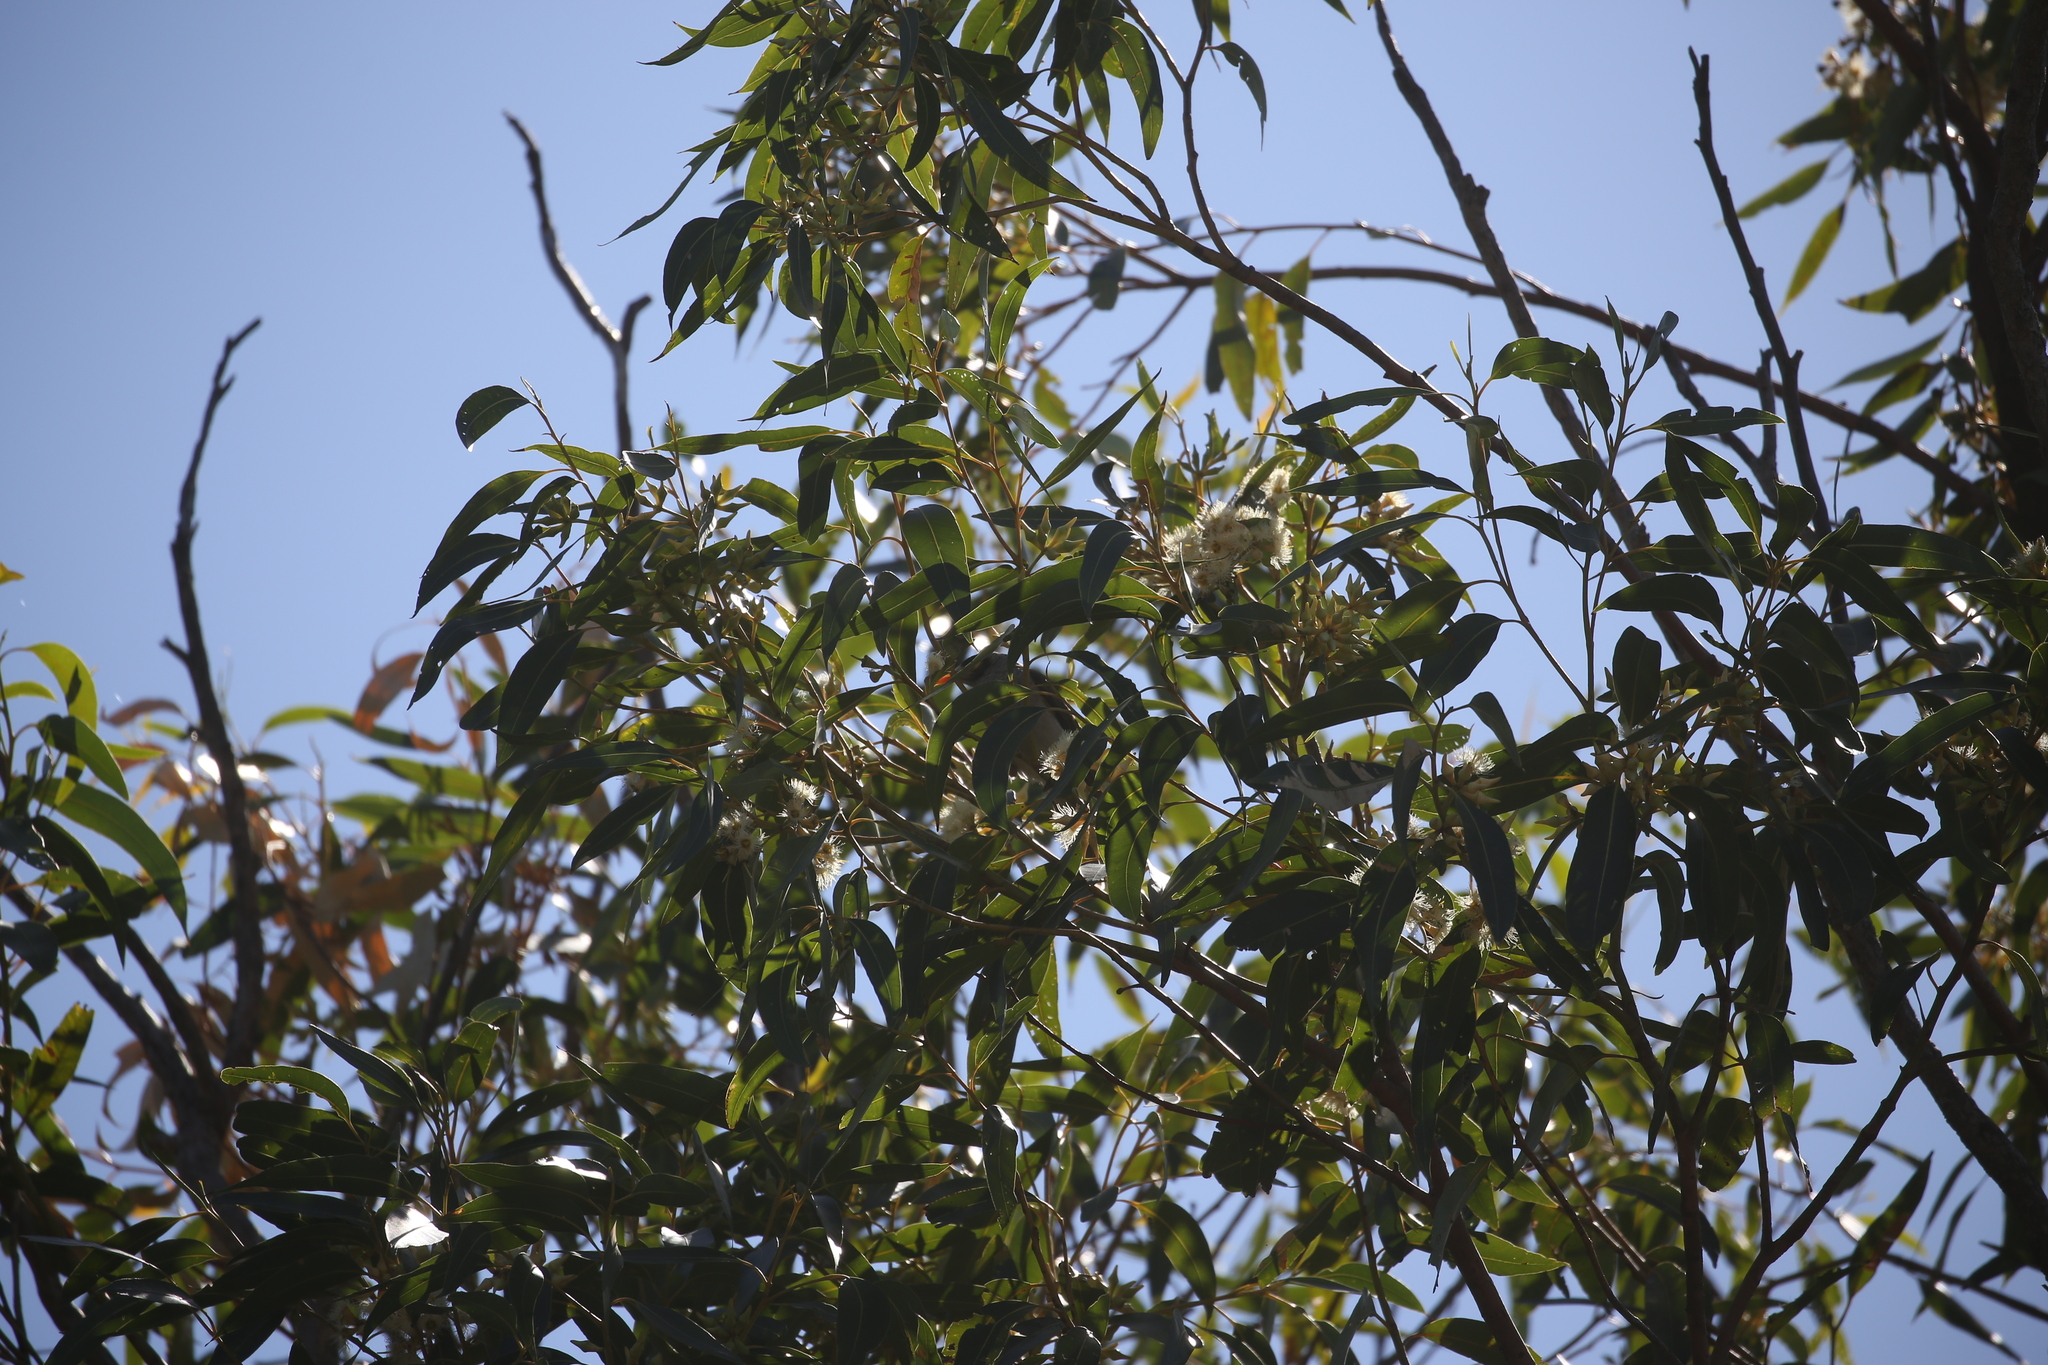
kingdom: Animalia
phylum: Chordata
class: Aves
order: Passeriformes
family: Meliphagidae
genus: Manorina
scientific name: Manorina melanocephala
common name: Noisy miner
